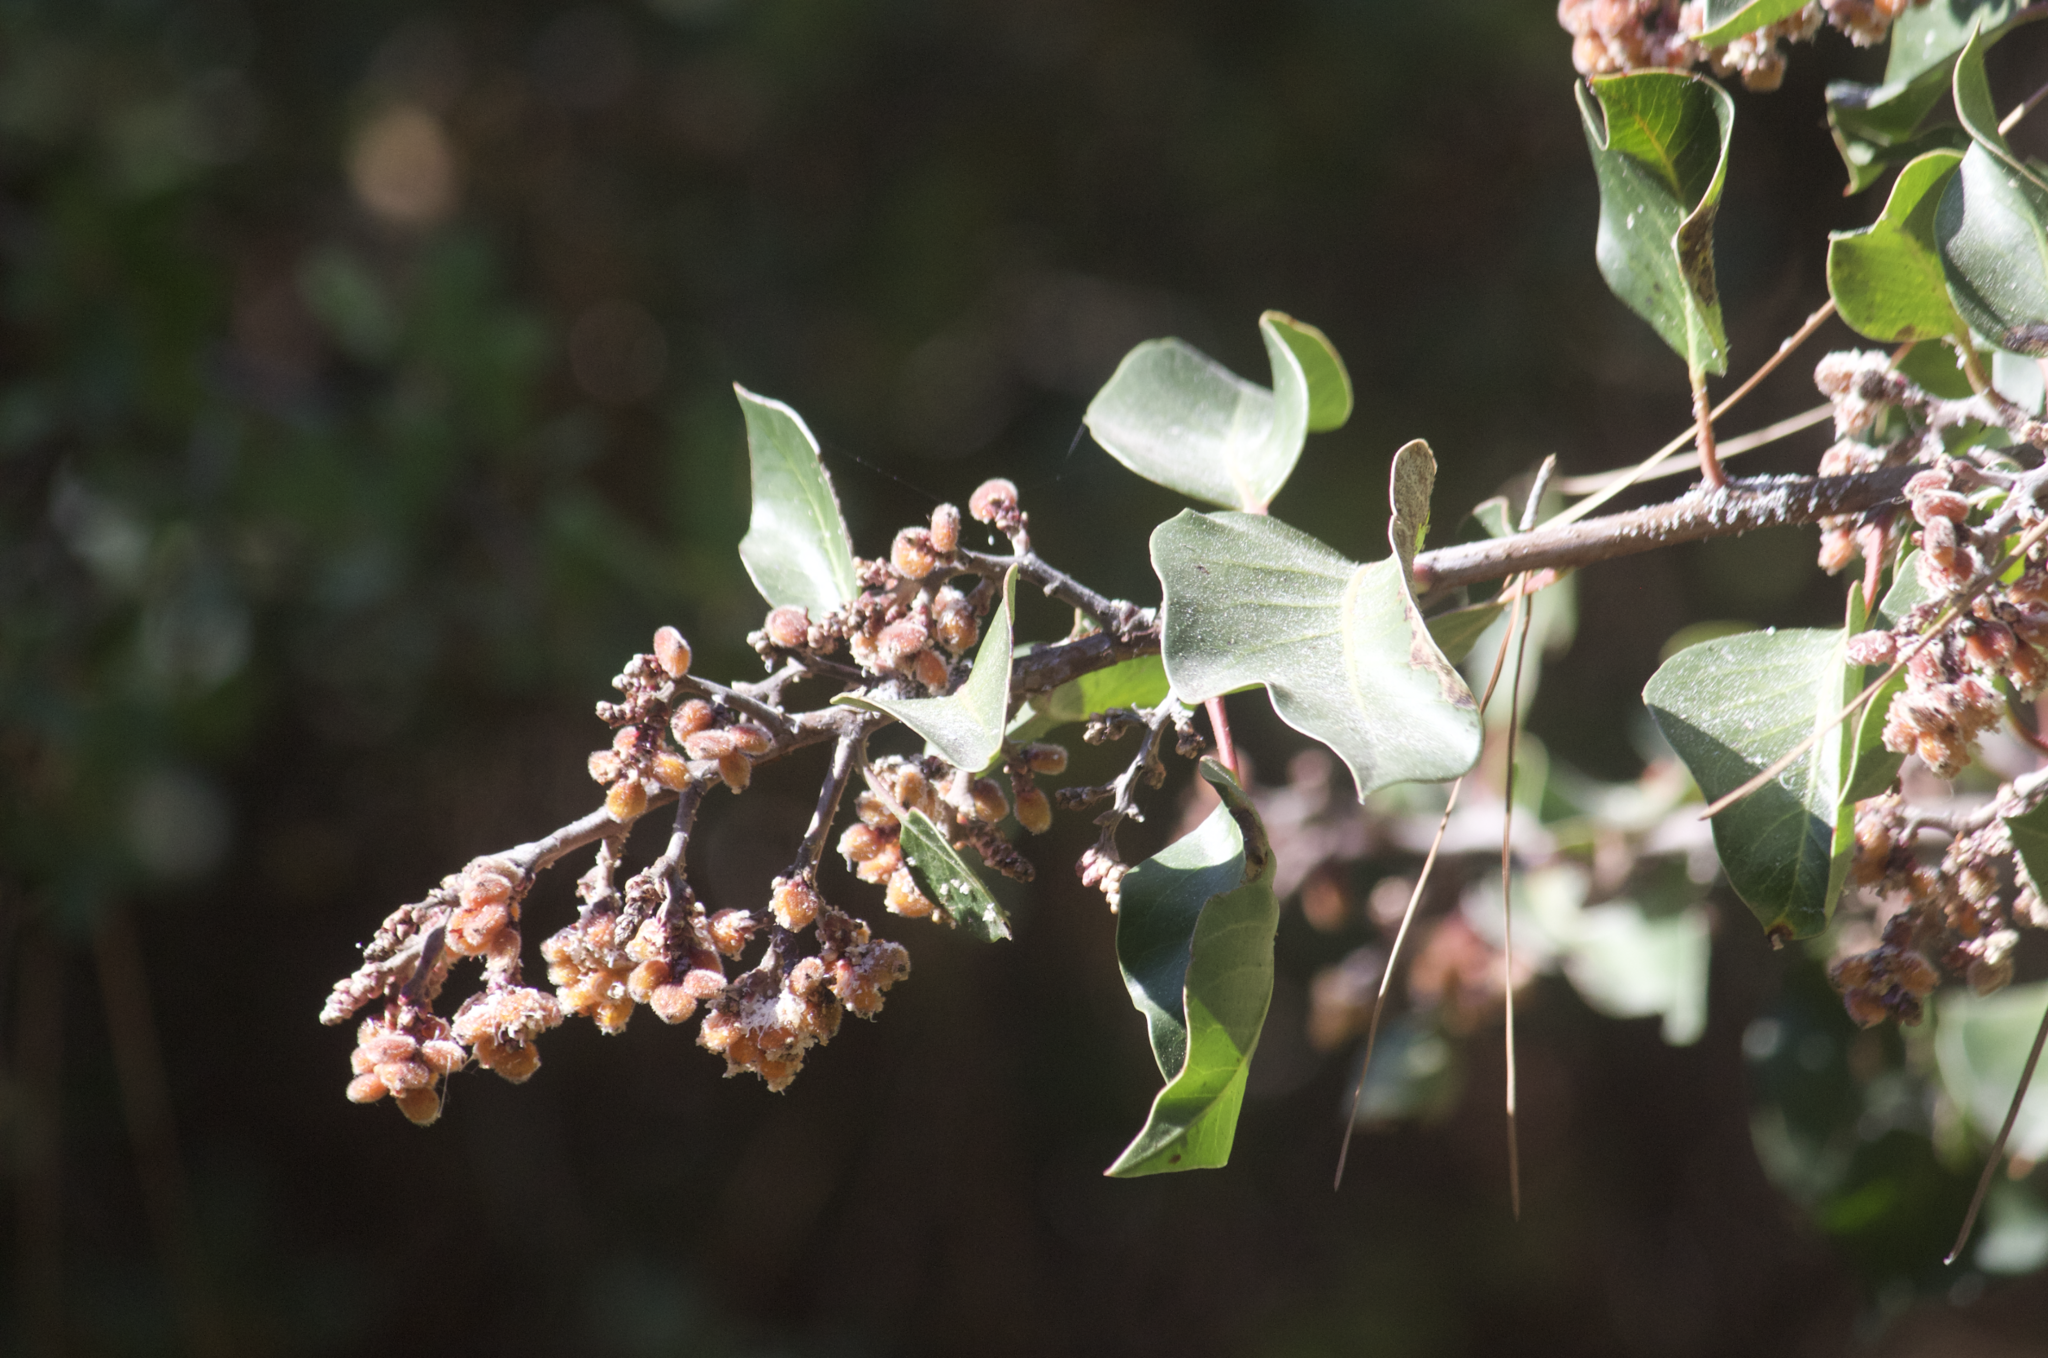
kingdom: Plantae
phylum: Tracheophyta
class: Magnoliopsida
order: Sapindales
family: Anacardiaceae
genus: Rhus
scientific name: Rhus ovata
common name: Sugar sumac
